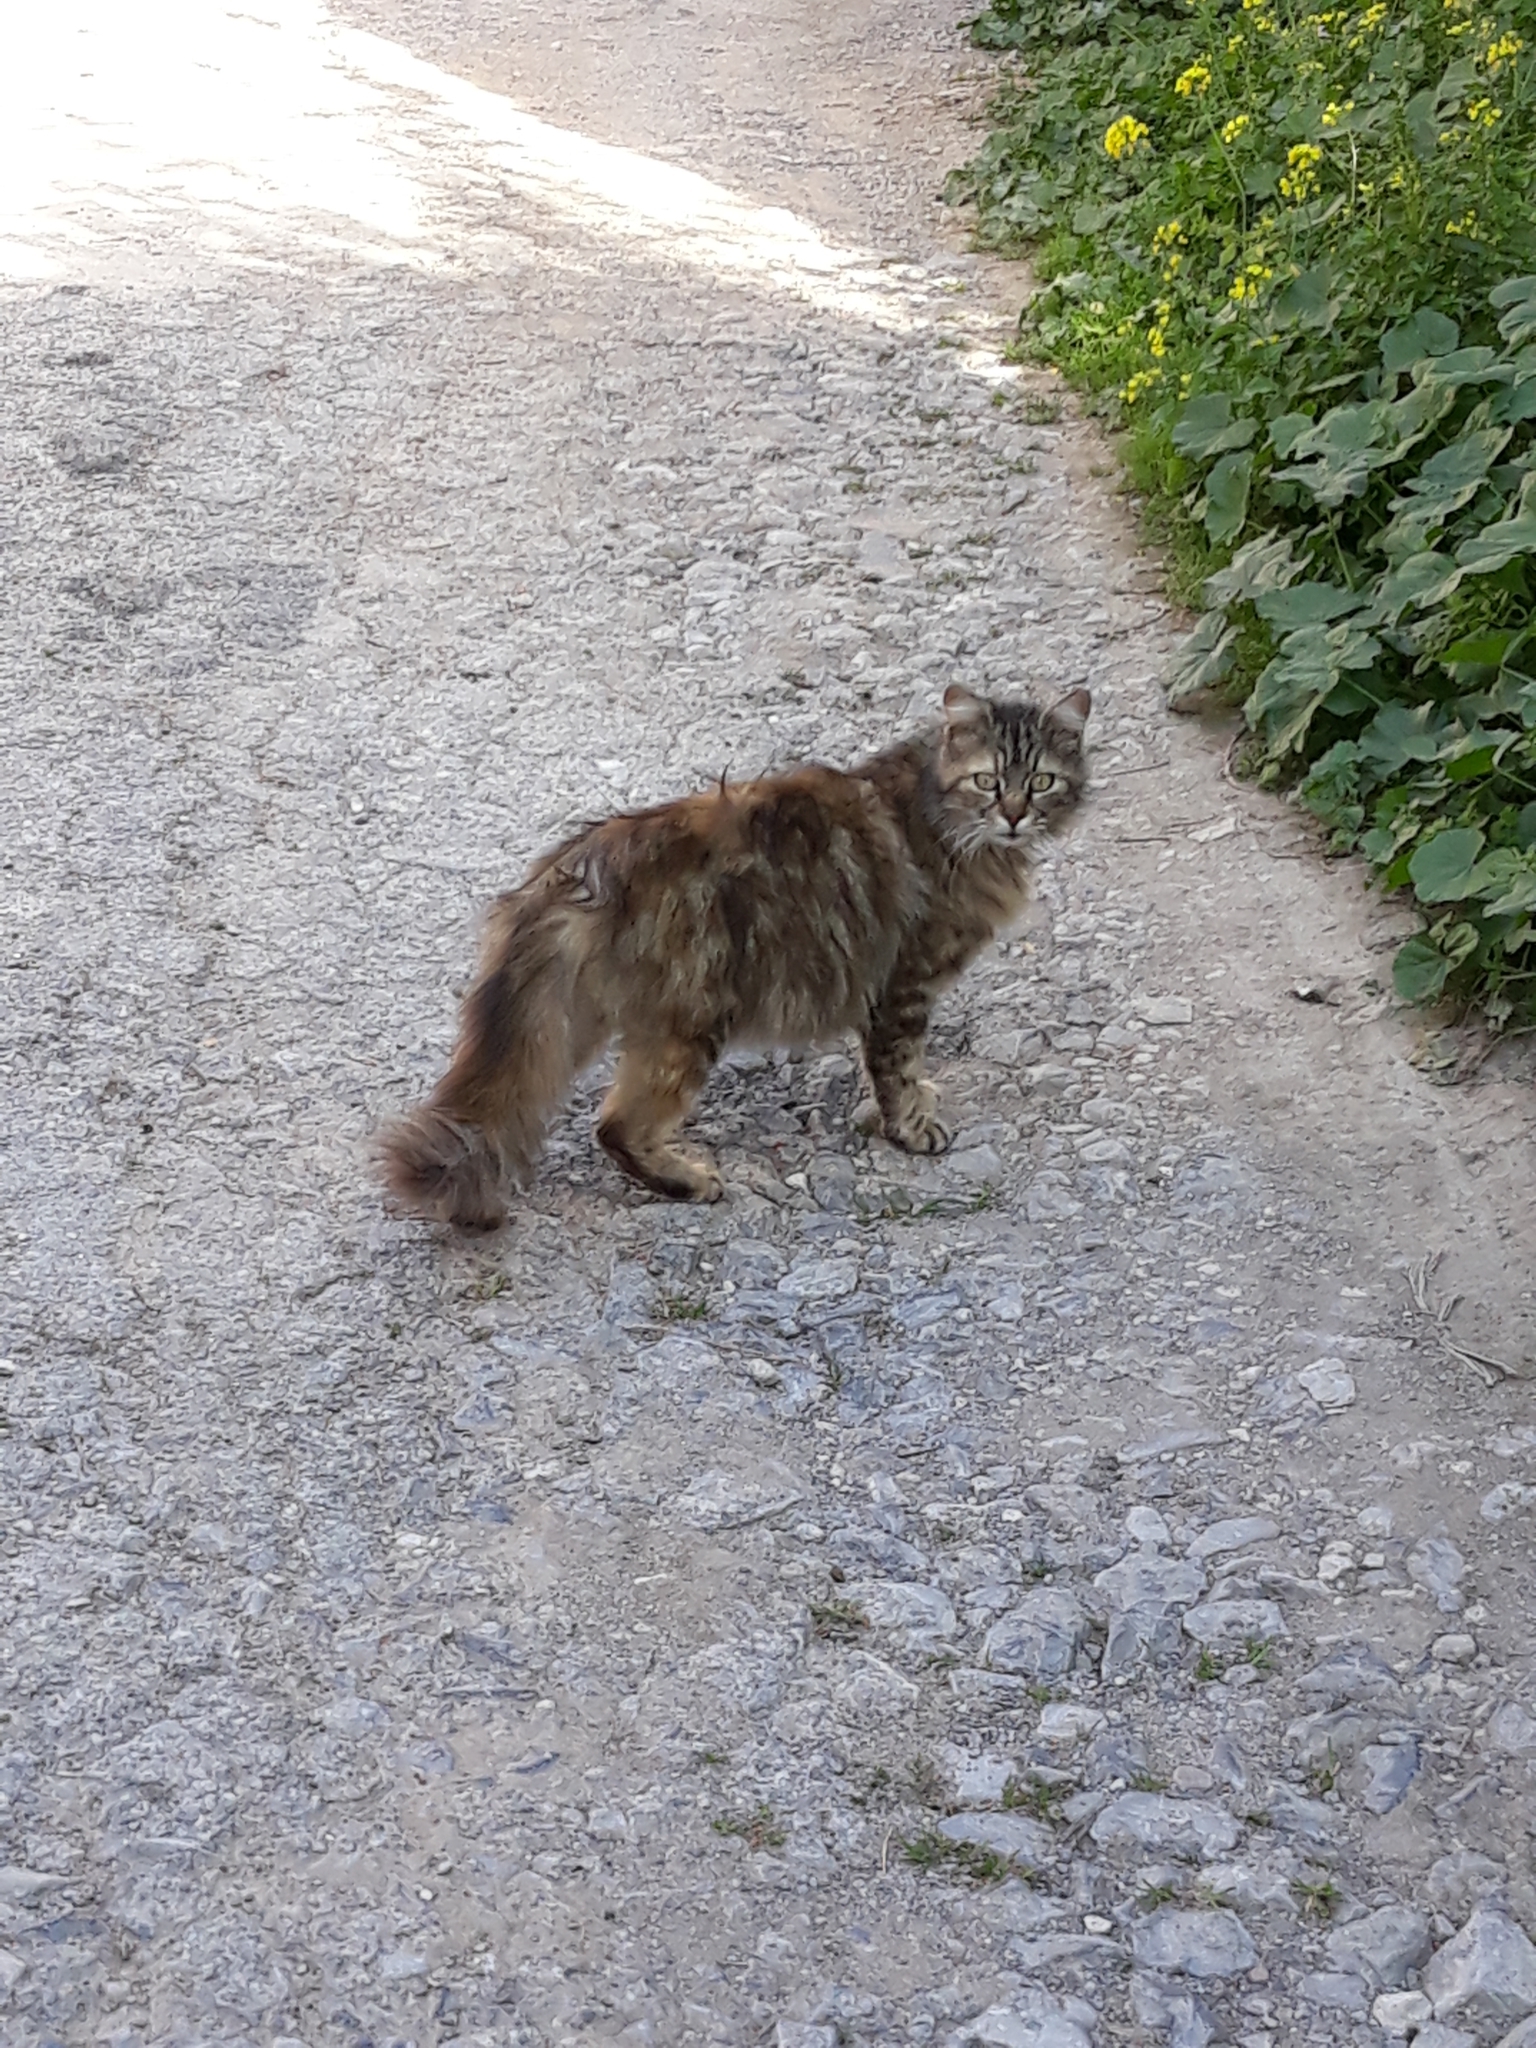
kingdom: Animalia
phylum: Chordata
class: Mammalia
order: Carnivora
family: Felidae
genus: Felis
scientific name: Felis catus
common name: Domestic cat
